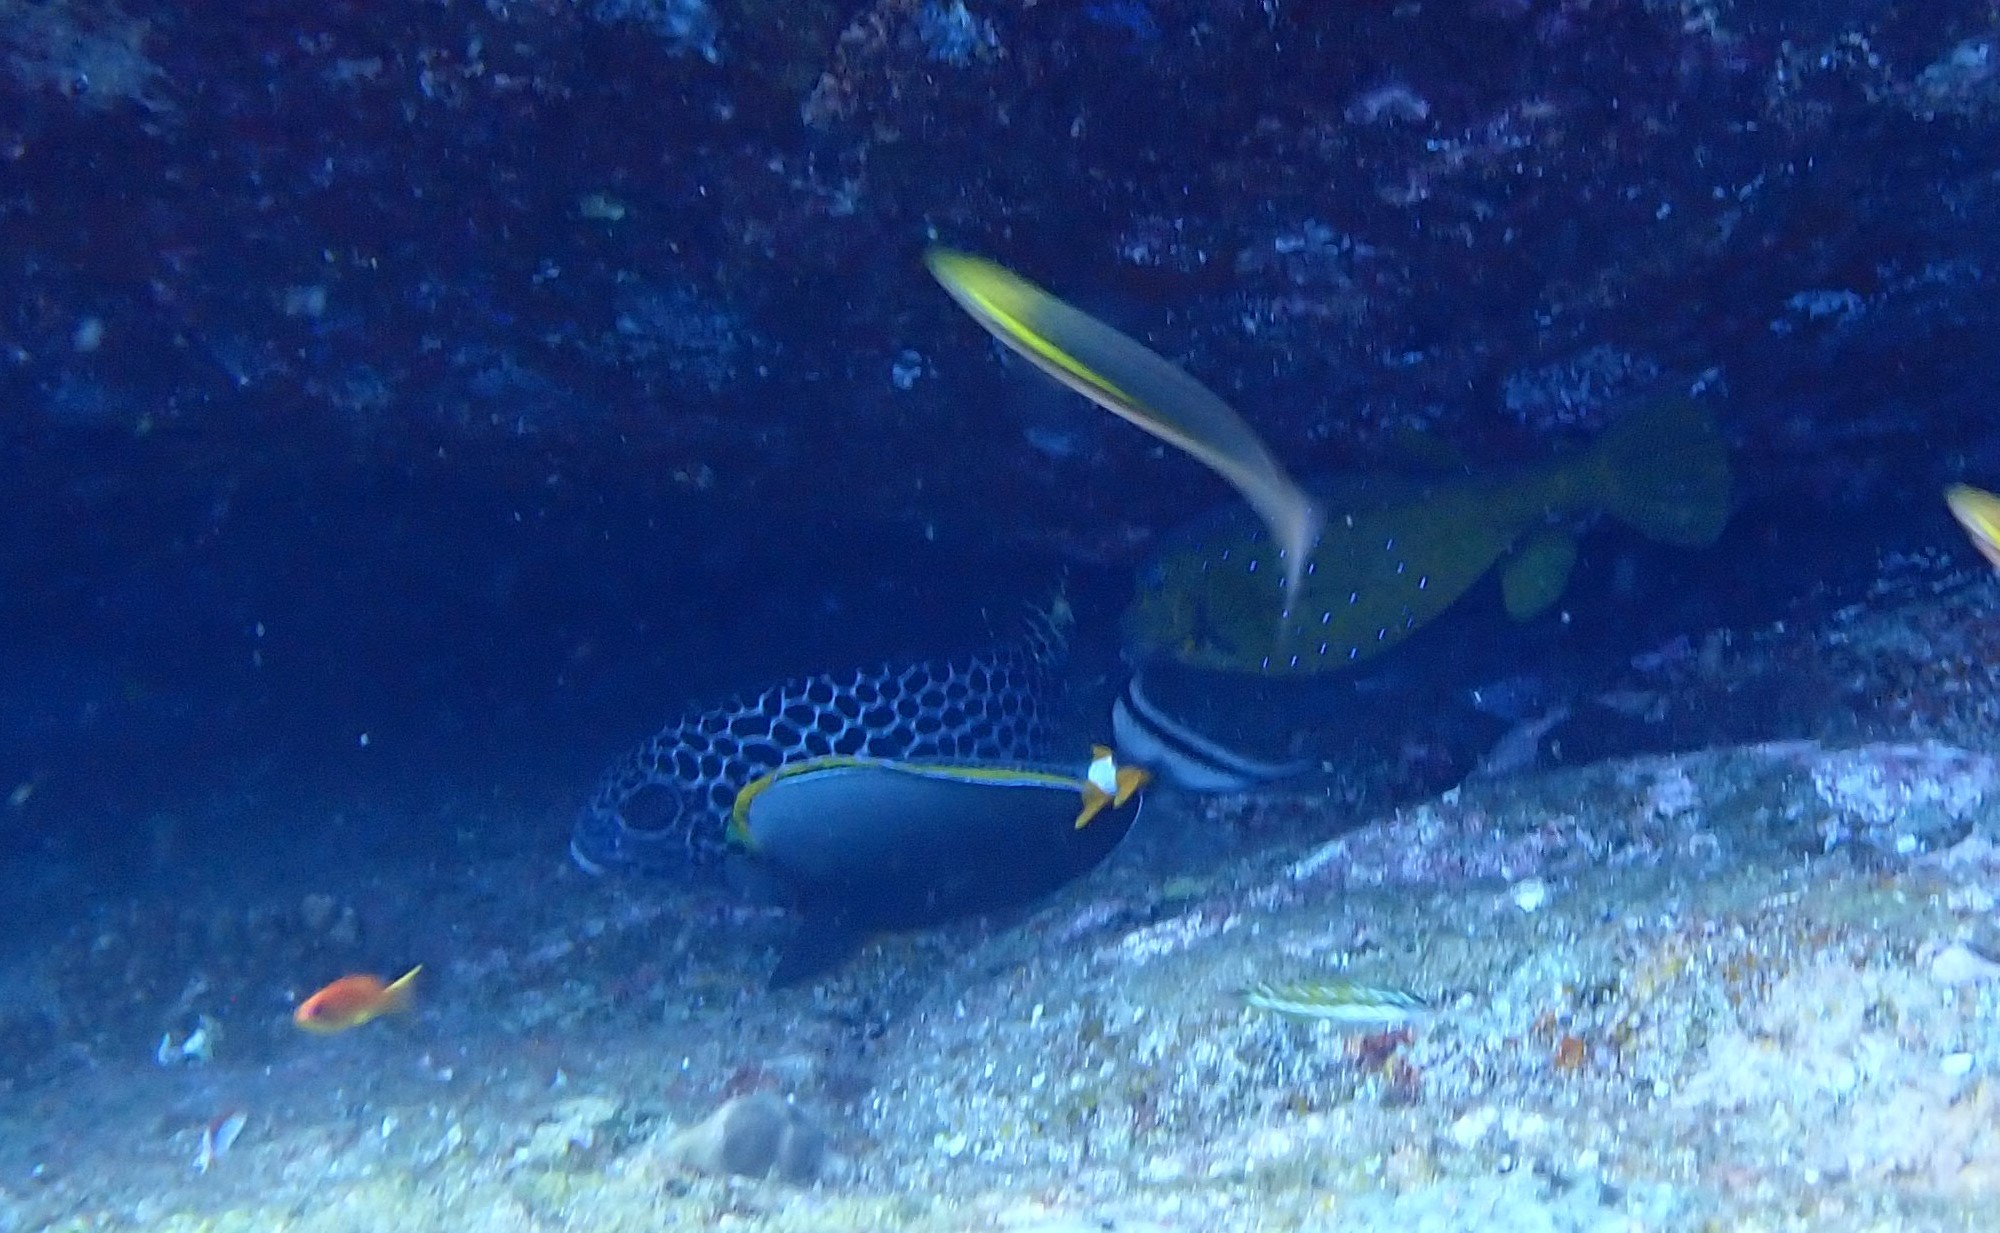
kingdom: Animalia
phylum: Chordata
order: Tetraodontiformes
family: Ostraciidae
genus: Ostracion
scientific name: Ostracion cubicus
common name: Cube trunkfish
